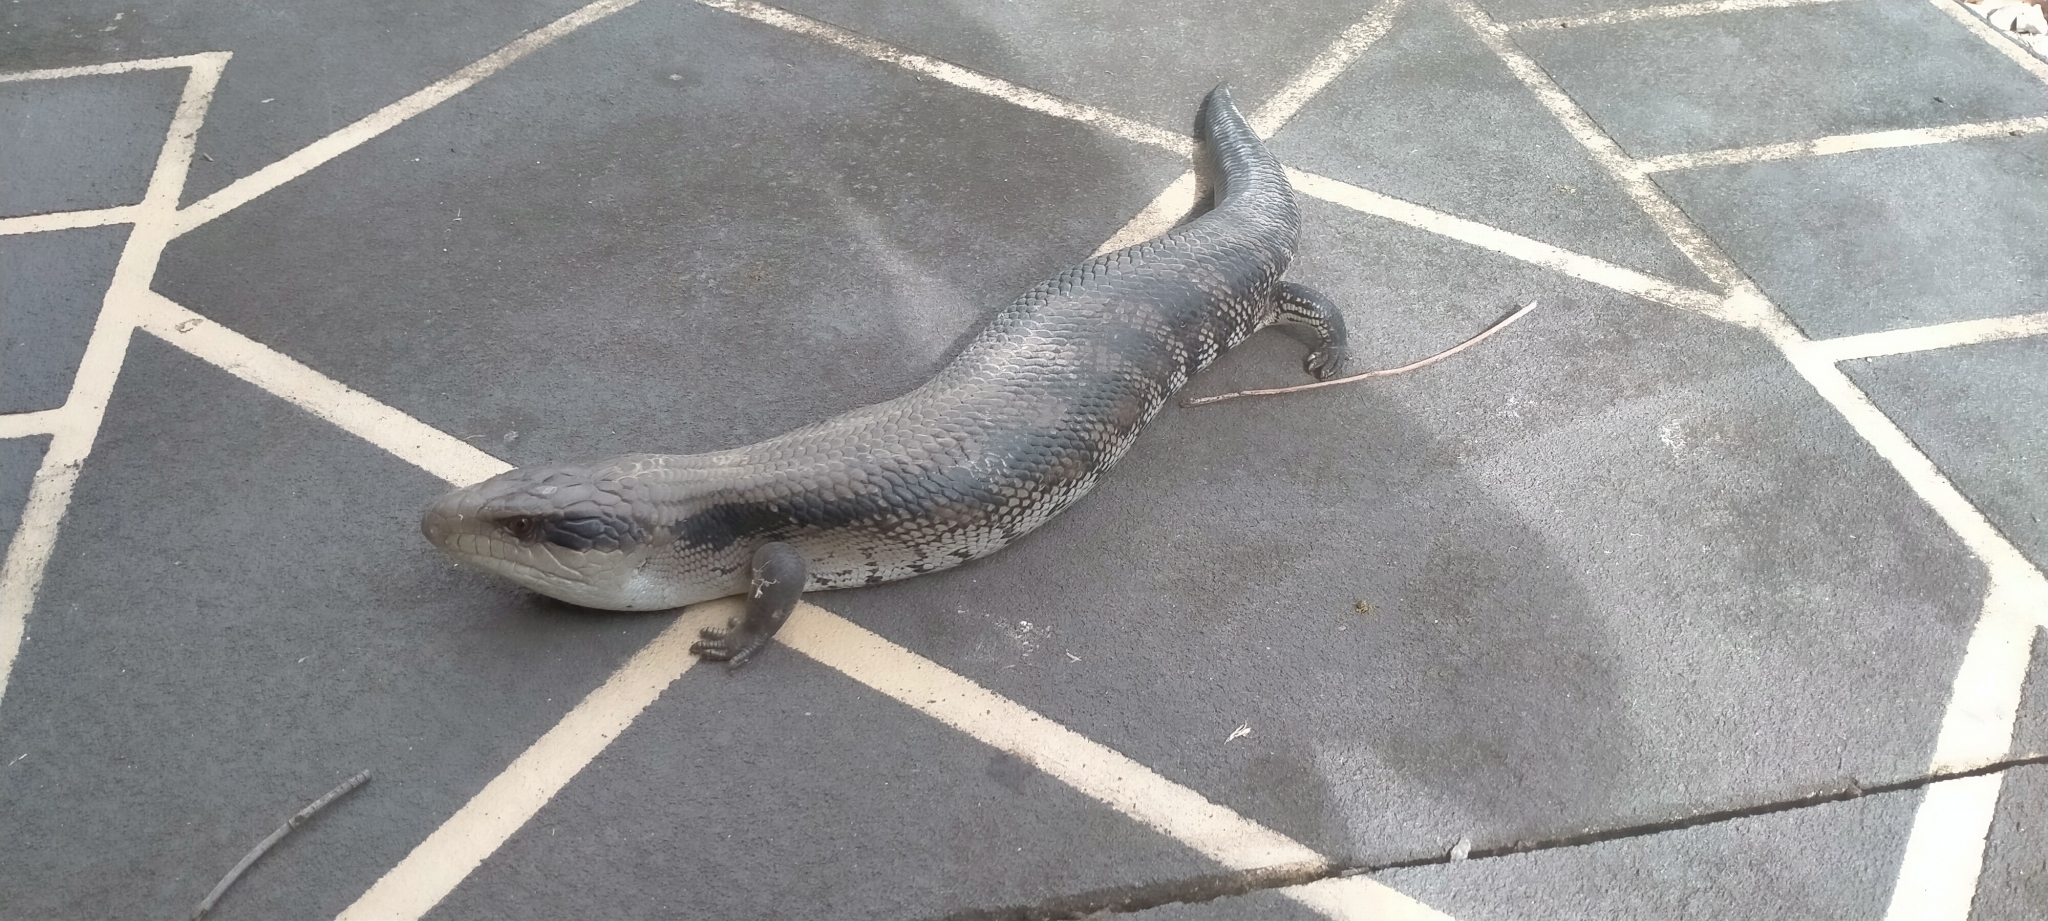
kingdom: Animalia
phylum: Chordata
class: Squamata
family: Scincidae
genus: Tiliqua
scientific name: Tiliqua scincoides
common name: Common bluetongue
